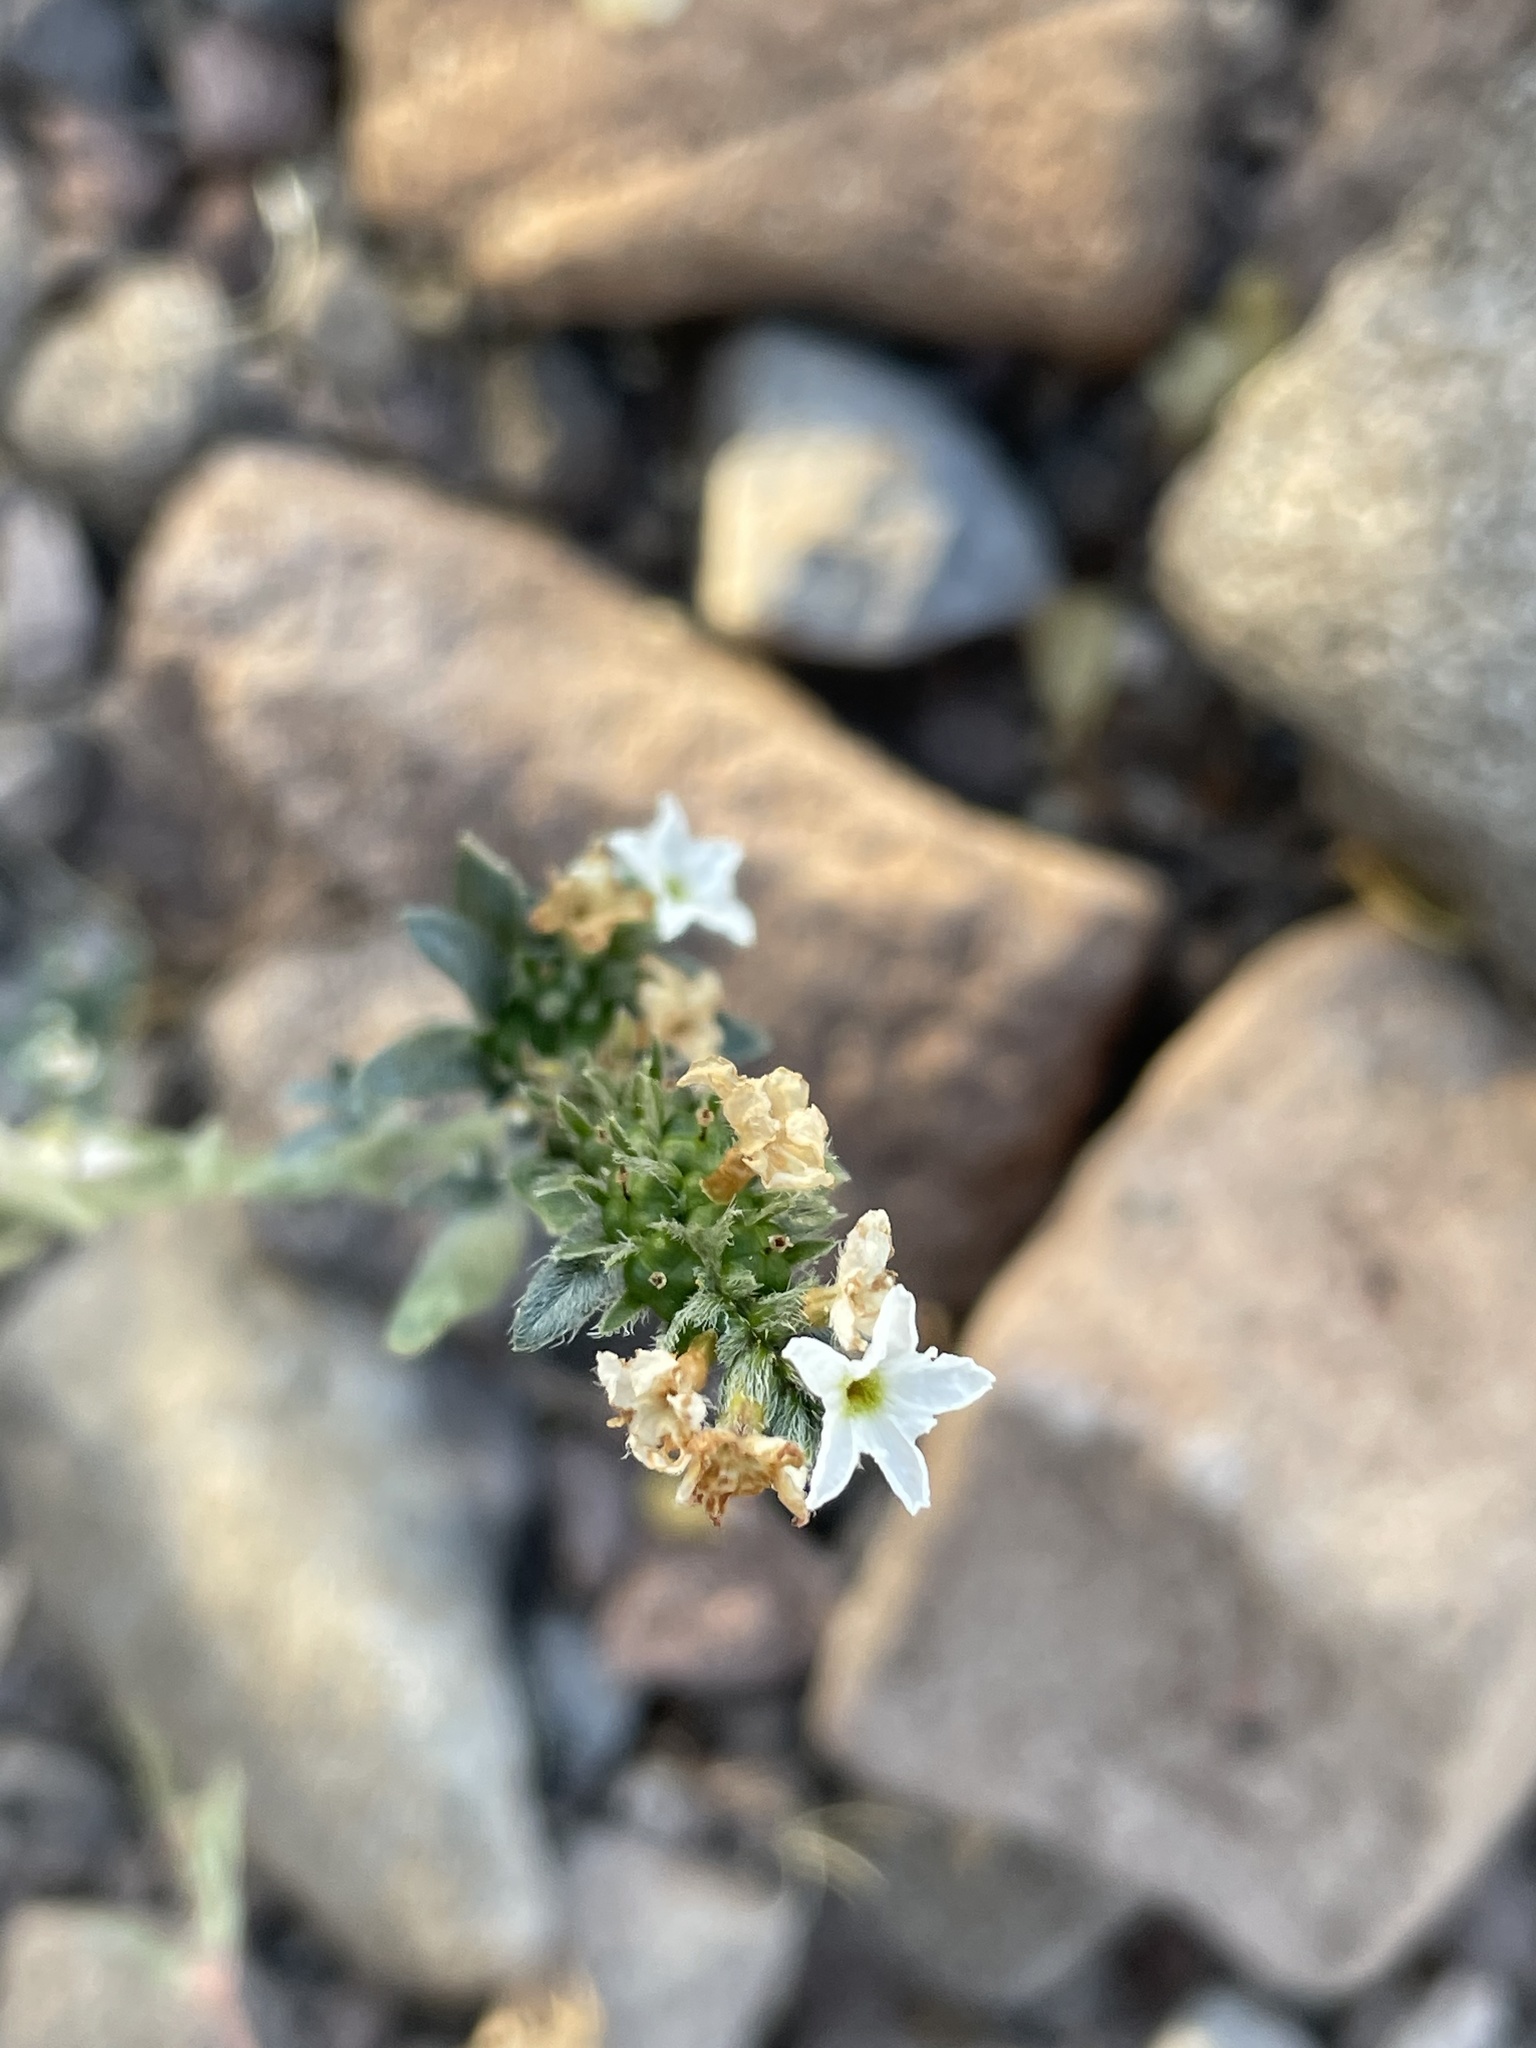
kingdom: Plantae
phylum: Tracheophyta
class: Magnoliopsida
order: Boraginales
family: Heliotropiaceae
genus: Euploca
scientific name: Euploca wigginsii
